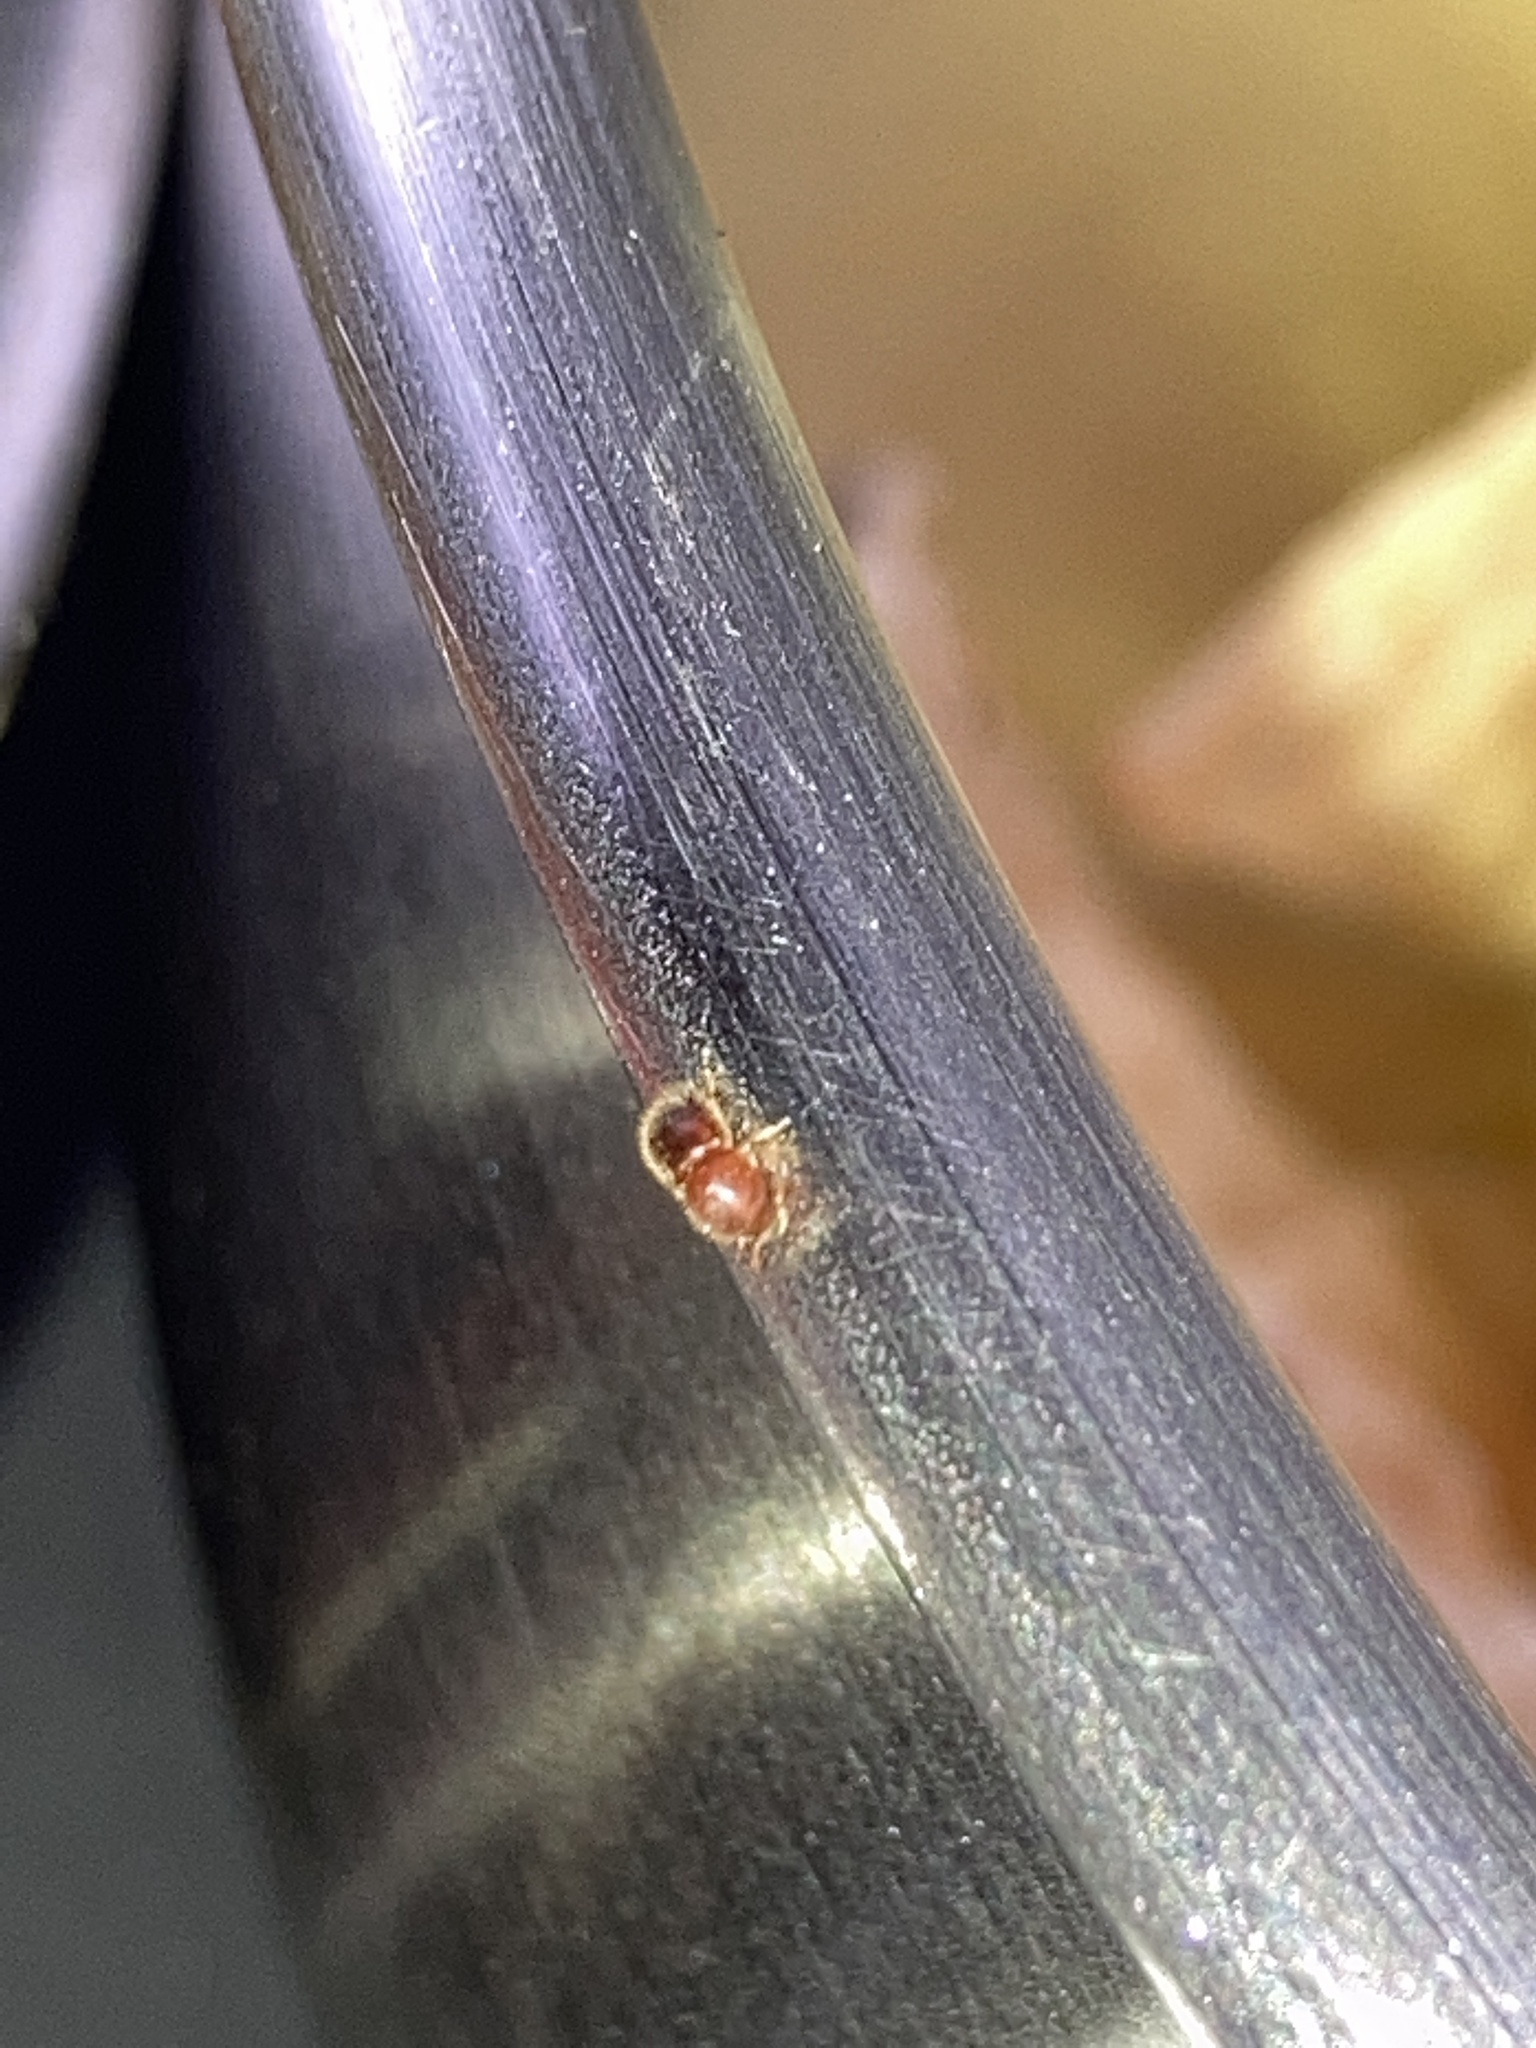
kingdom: Animalia
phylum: Arthropoda
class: Insecta
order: Coleoptera
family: Curculionidae
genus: Xylosandrus
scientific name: Xylosandrus crassiusculus
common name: Granulate ambrosia beetle
